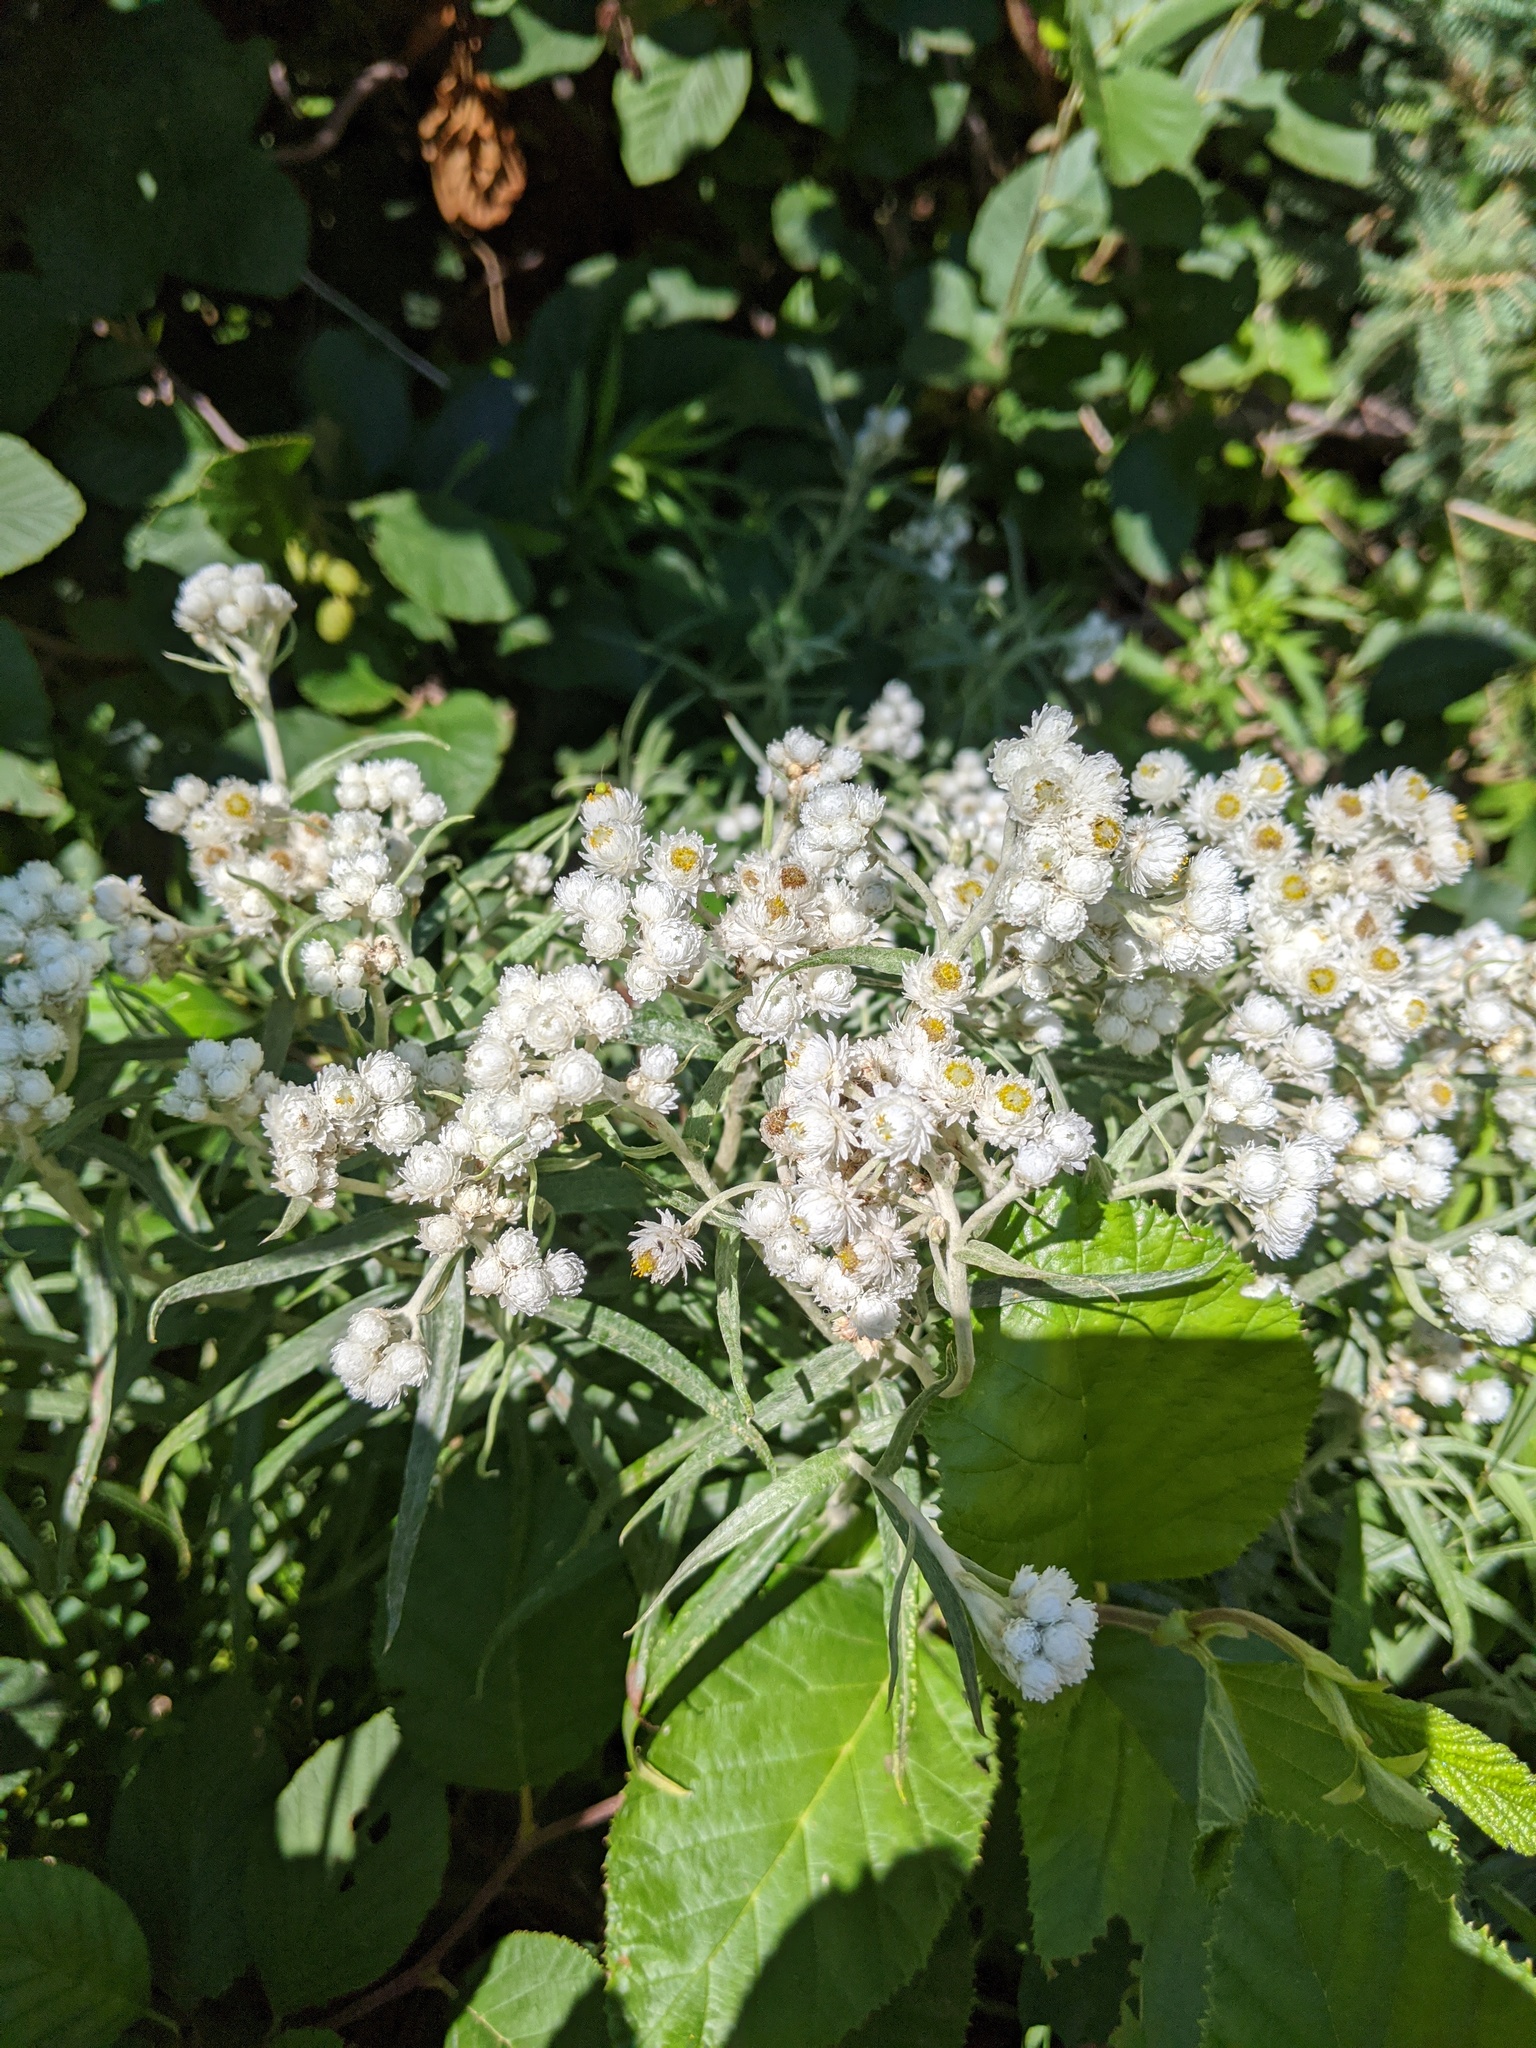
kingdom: Plantae
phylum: Tracheophyta
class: Magnoliopsida
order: Asterales
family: Asteraceae
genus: Anaphalis
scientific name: Anaphalis margaritacea
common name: Pearly everlasting
